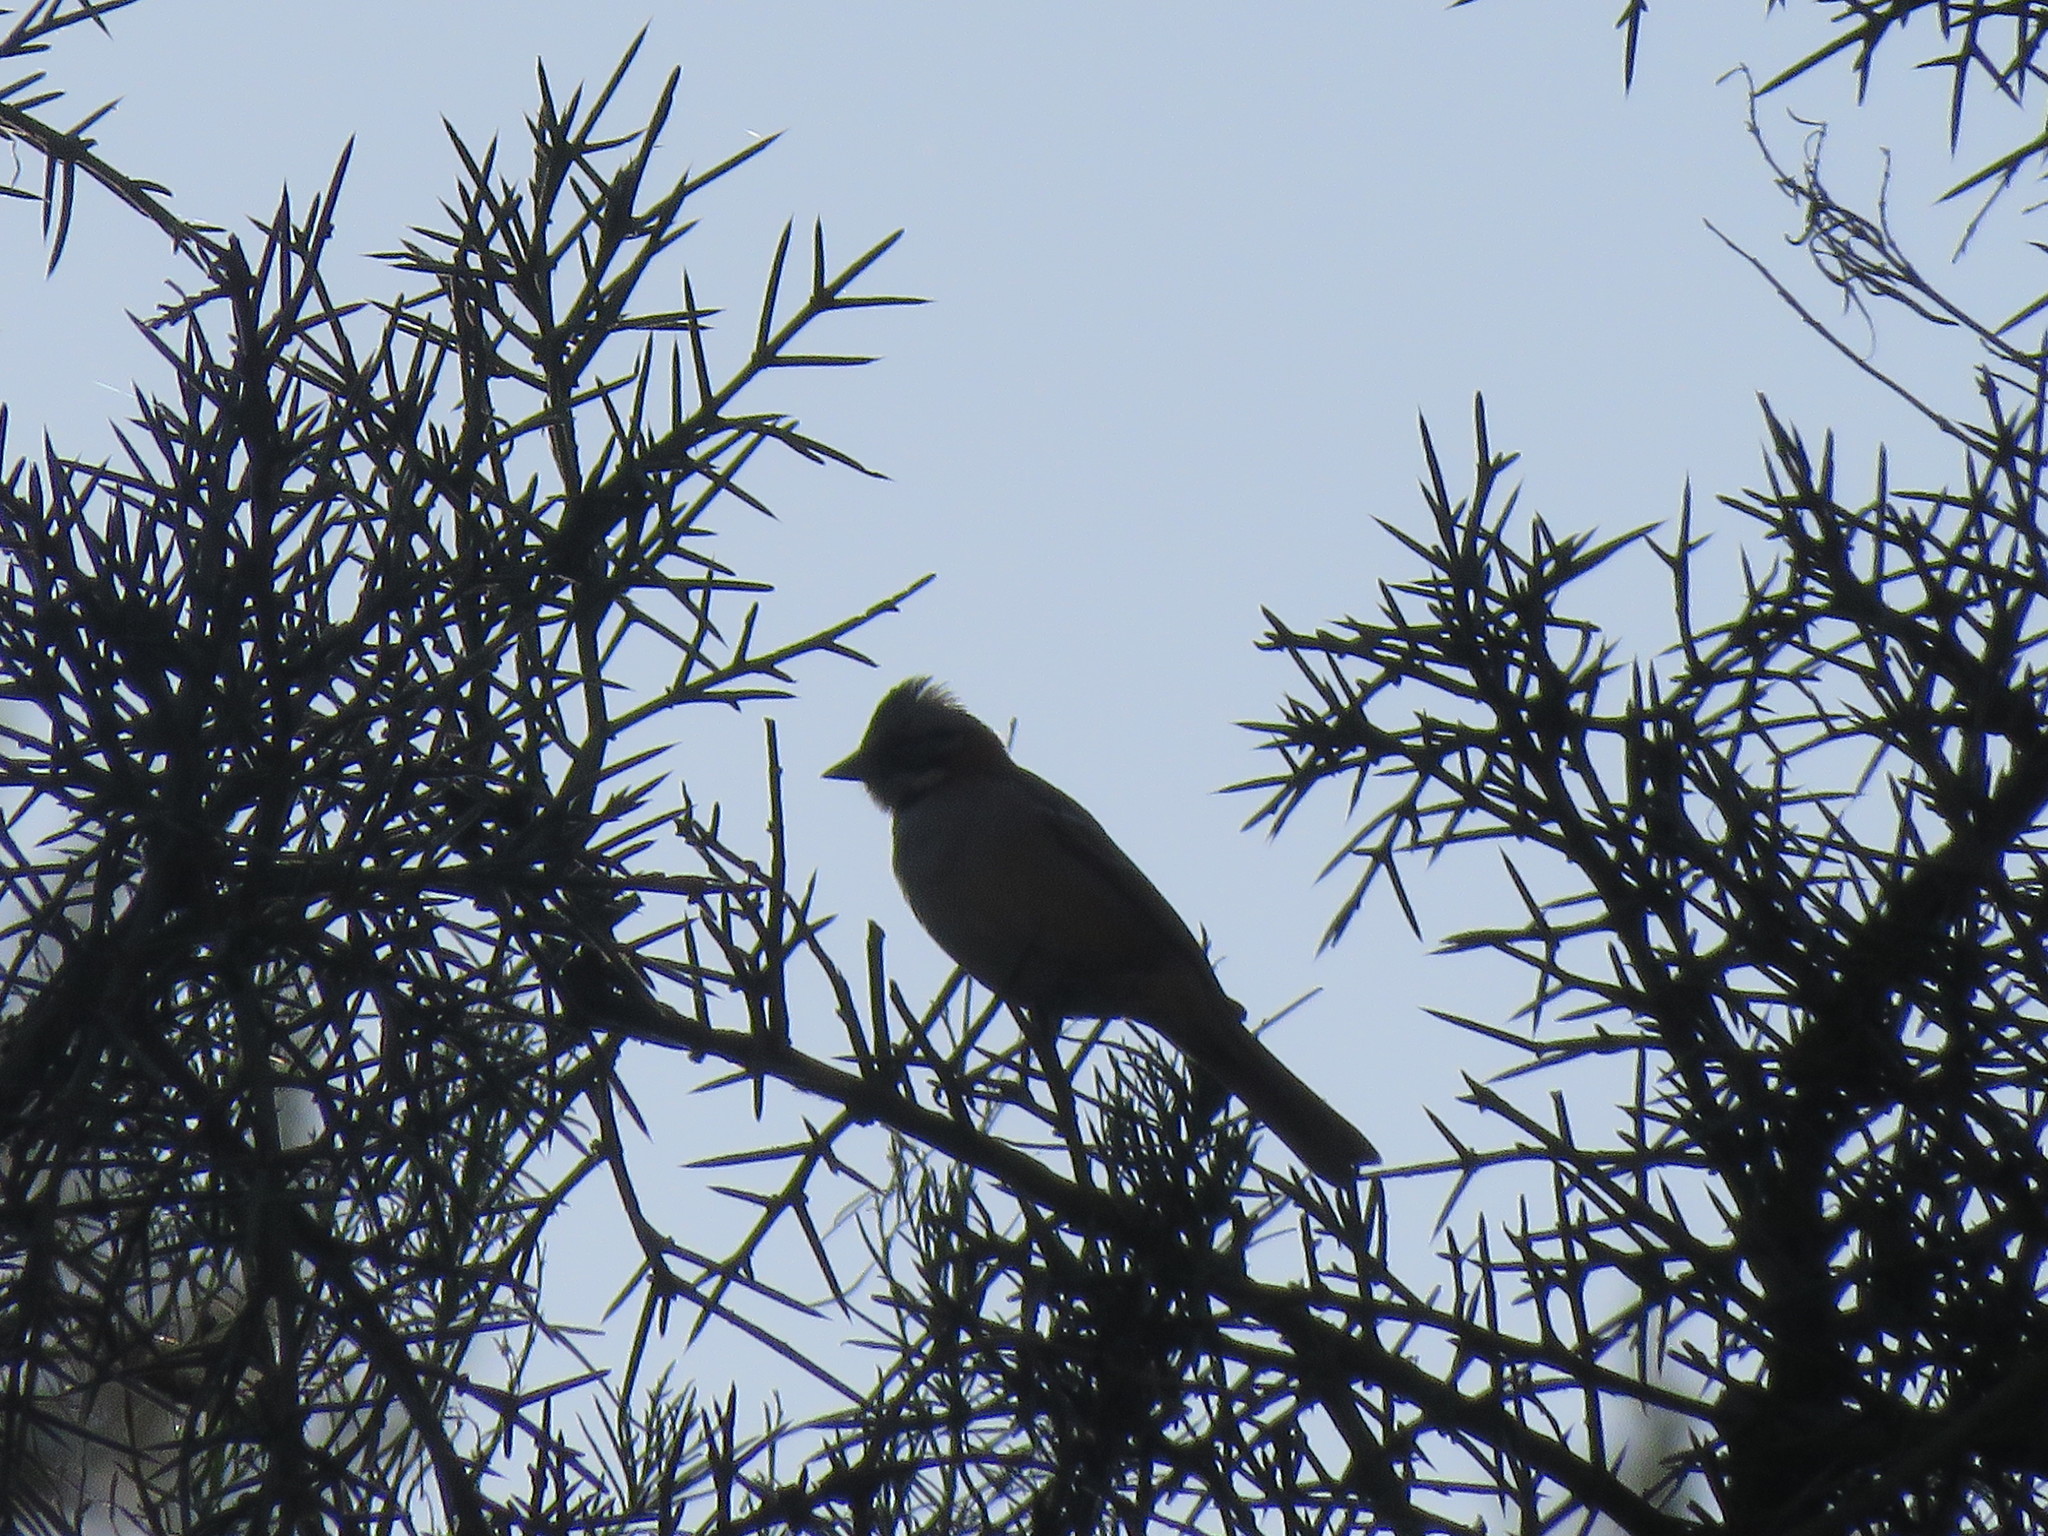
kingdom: Animalia
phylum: Chordata
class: Aves
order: Passeriformes
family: Passerellidae
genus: Zonotrichia
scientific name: Zonotrichia capensis
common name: Rufous-collared sparrow
